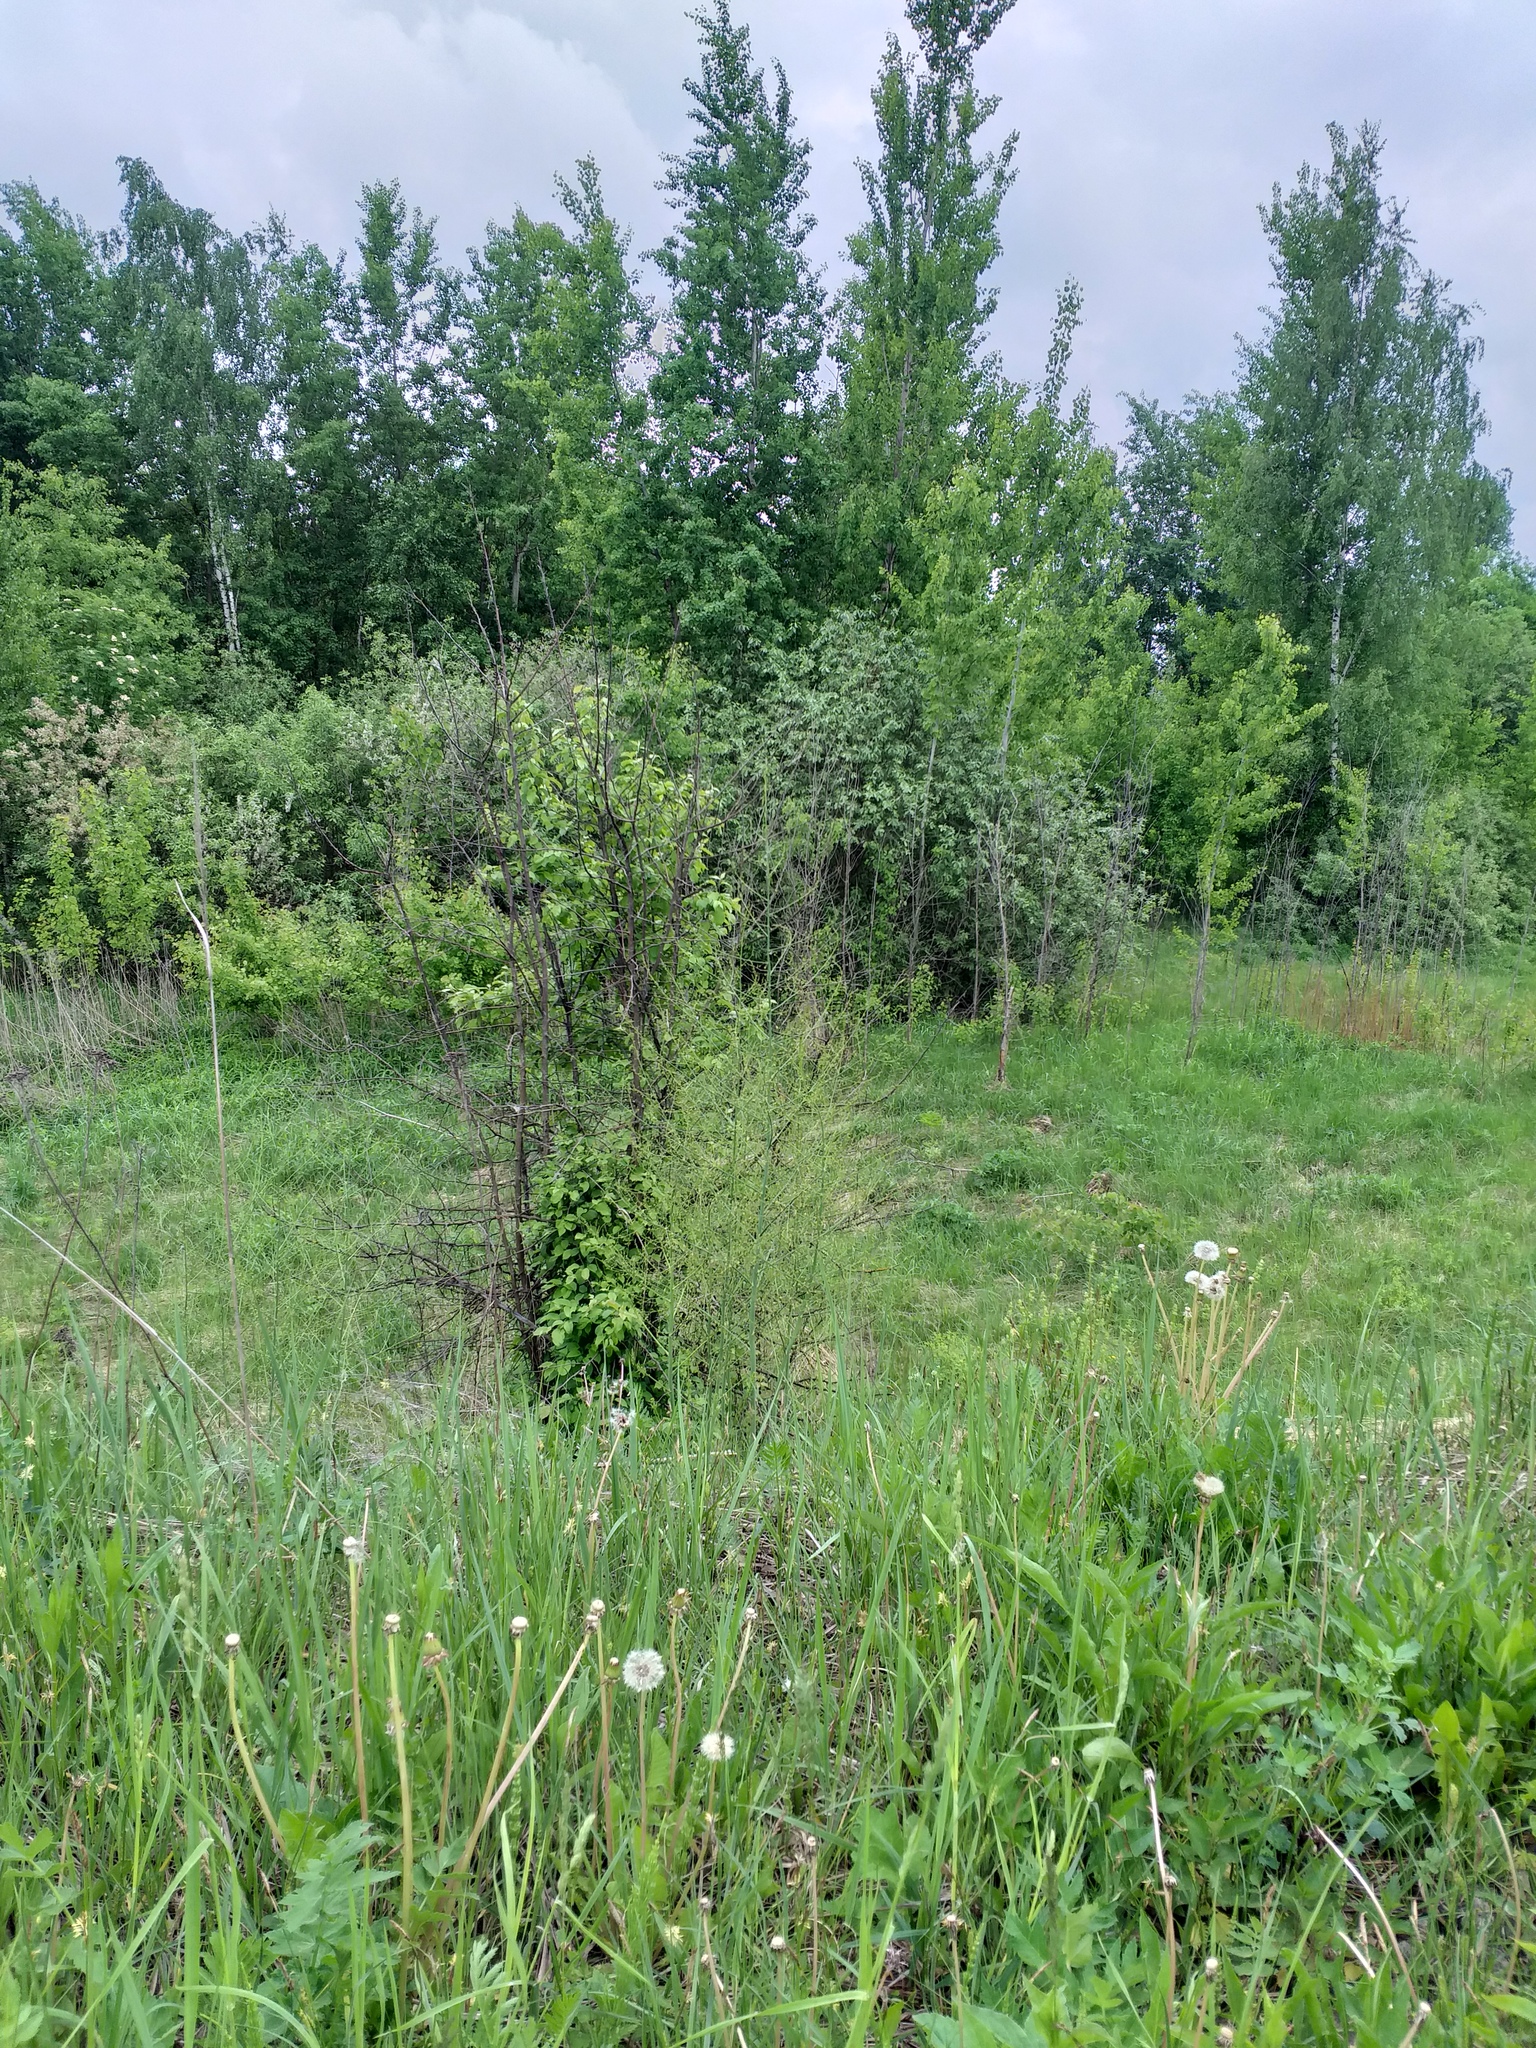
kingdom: Plantae
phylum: Tracheophyta
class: Liliopsida
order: Asparagales
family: Asparagaceae
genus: Asparagus
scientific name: Asparagus officinalis
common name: Garden asparagus
